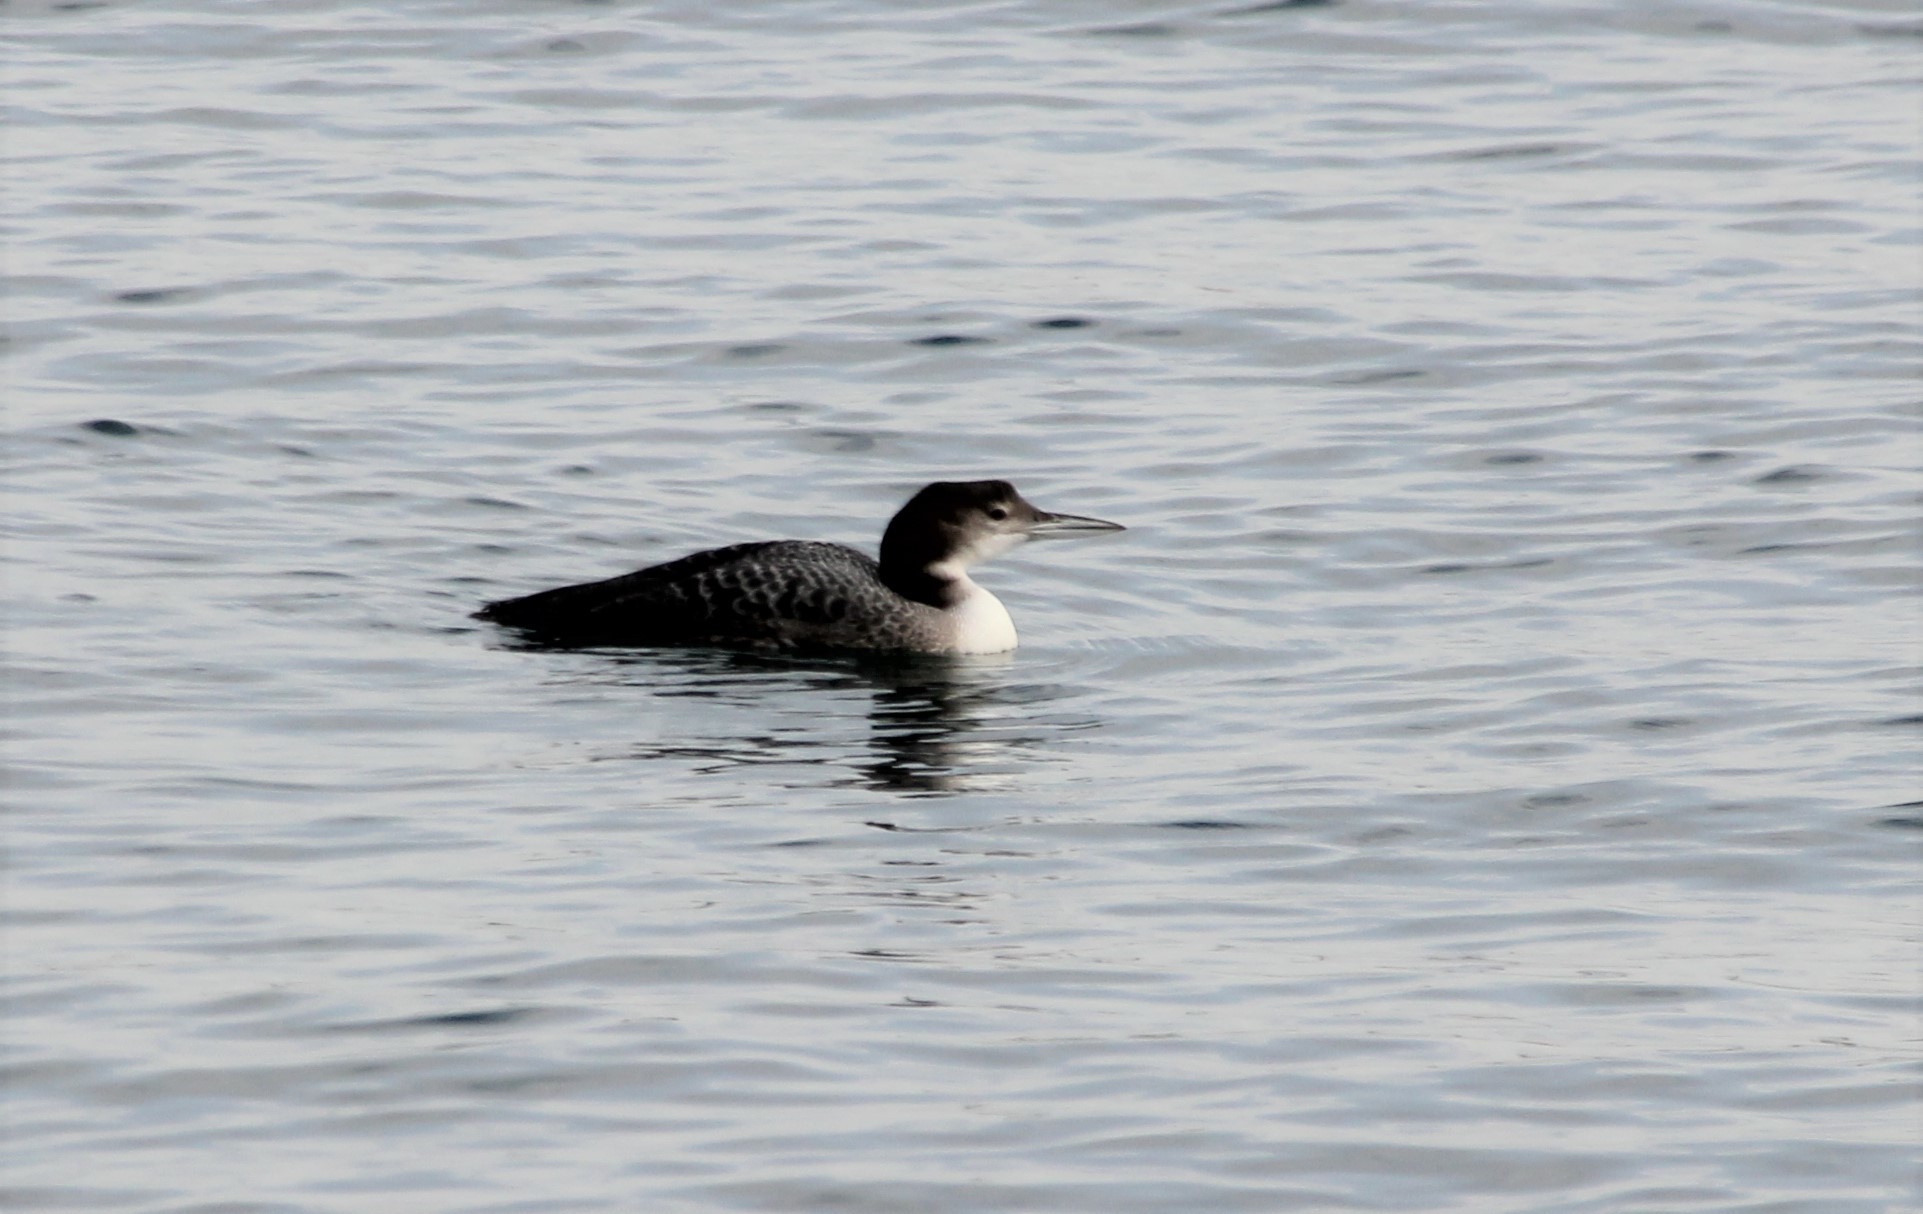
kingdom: Animalia
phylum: Chordata
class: Aves
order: Gaviiformes
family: Gaviidae
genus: Gavia
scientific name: Gavia immer
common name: Common loon
